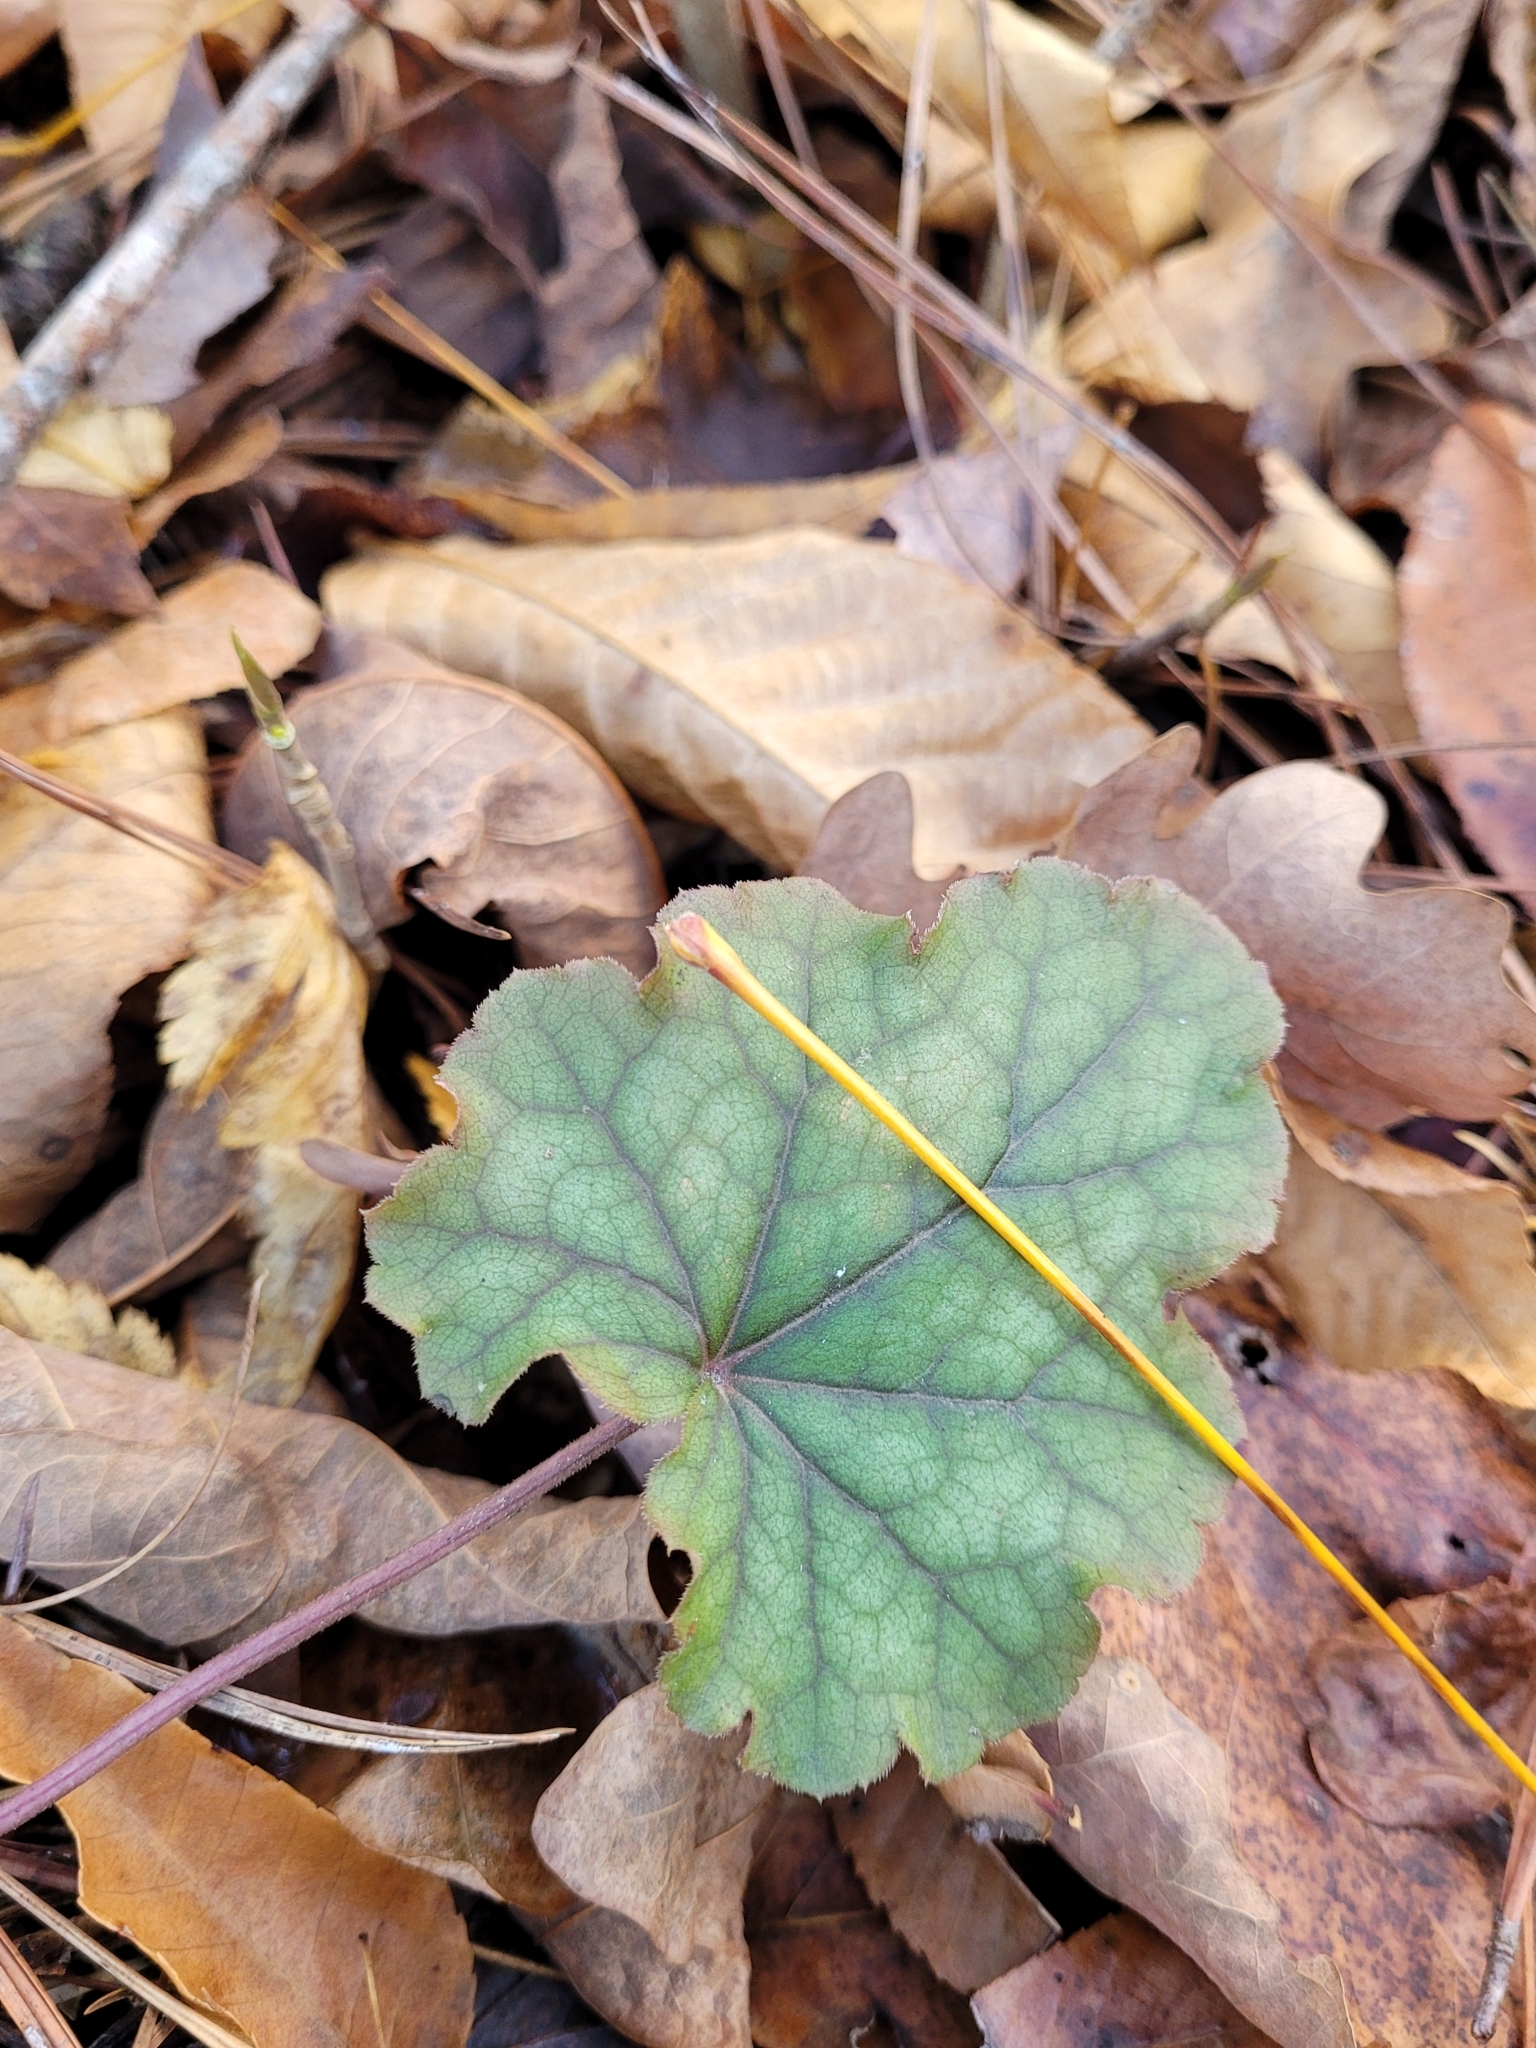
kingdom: Plantae
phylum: Tracheophyta
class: Magnoliopsida
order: Saxifragales
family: Saxifragaceae
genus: Heuchera
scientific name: Heuchera americana
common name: Alumroot
